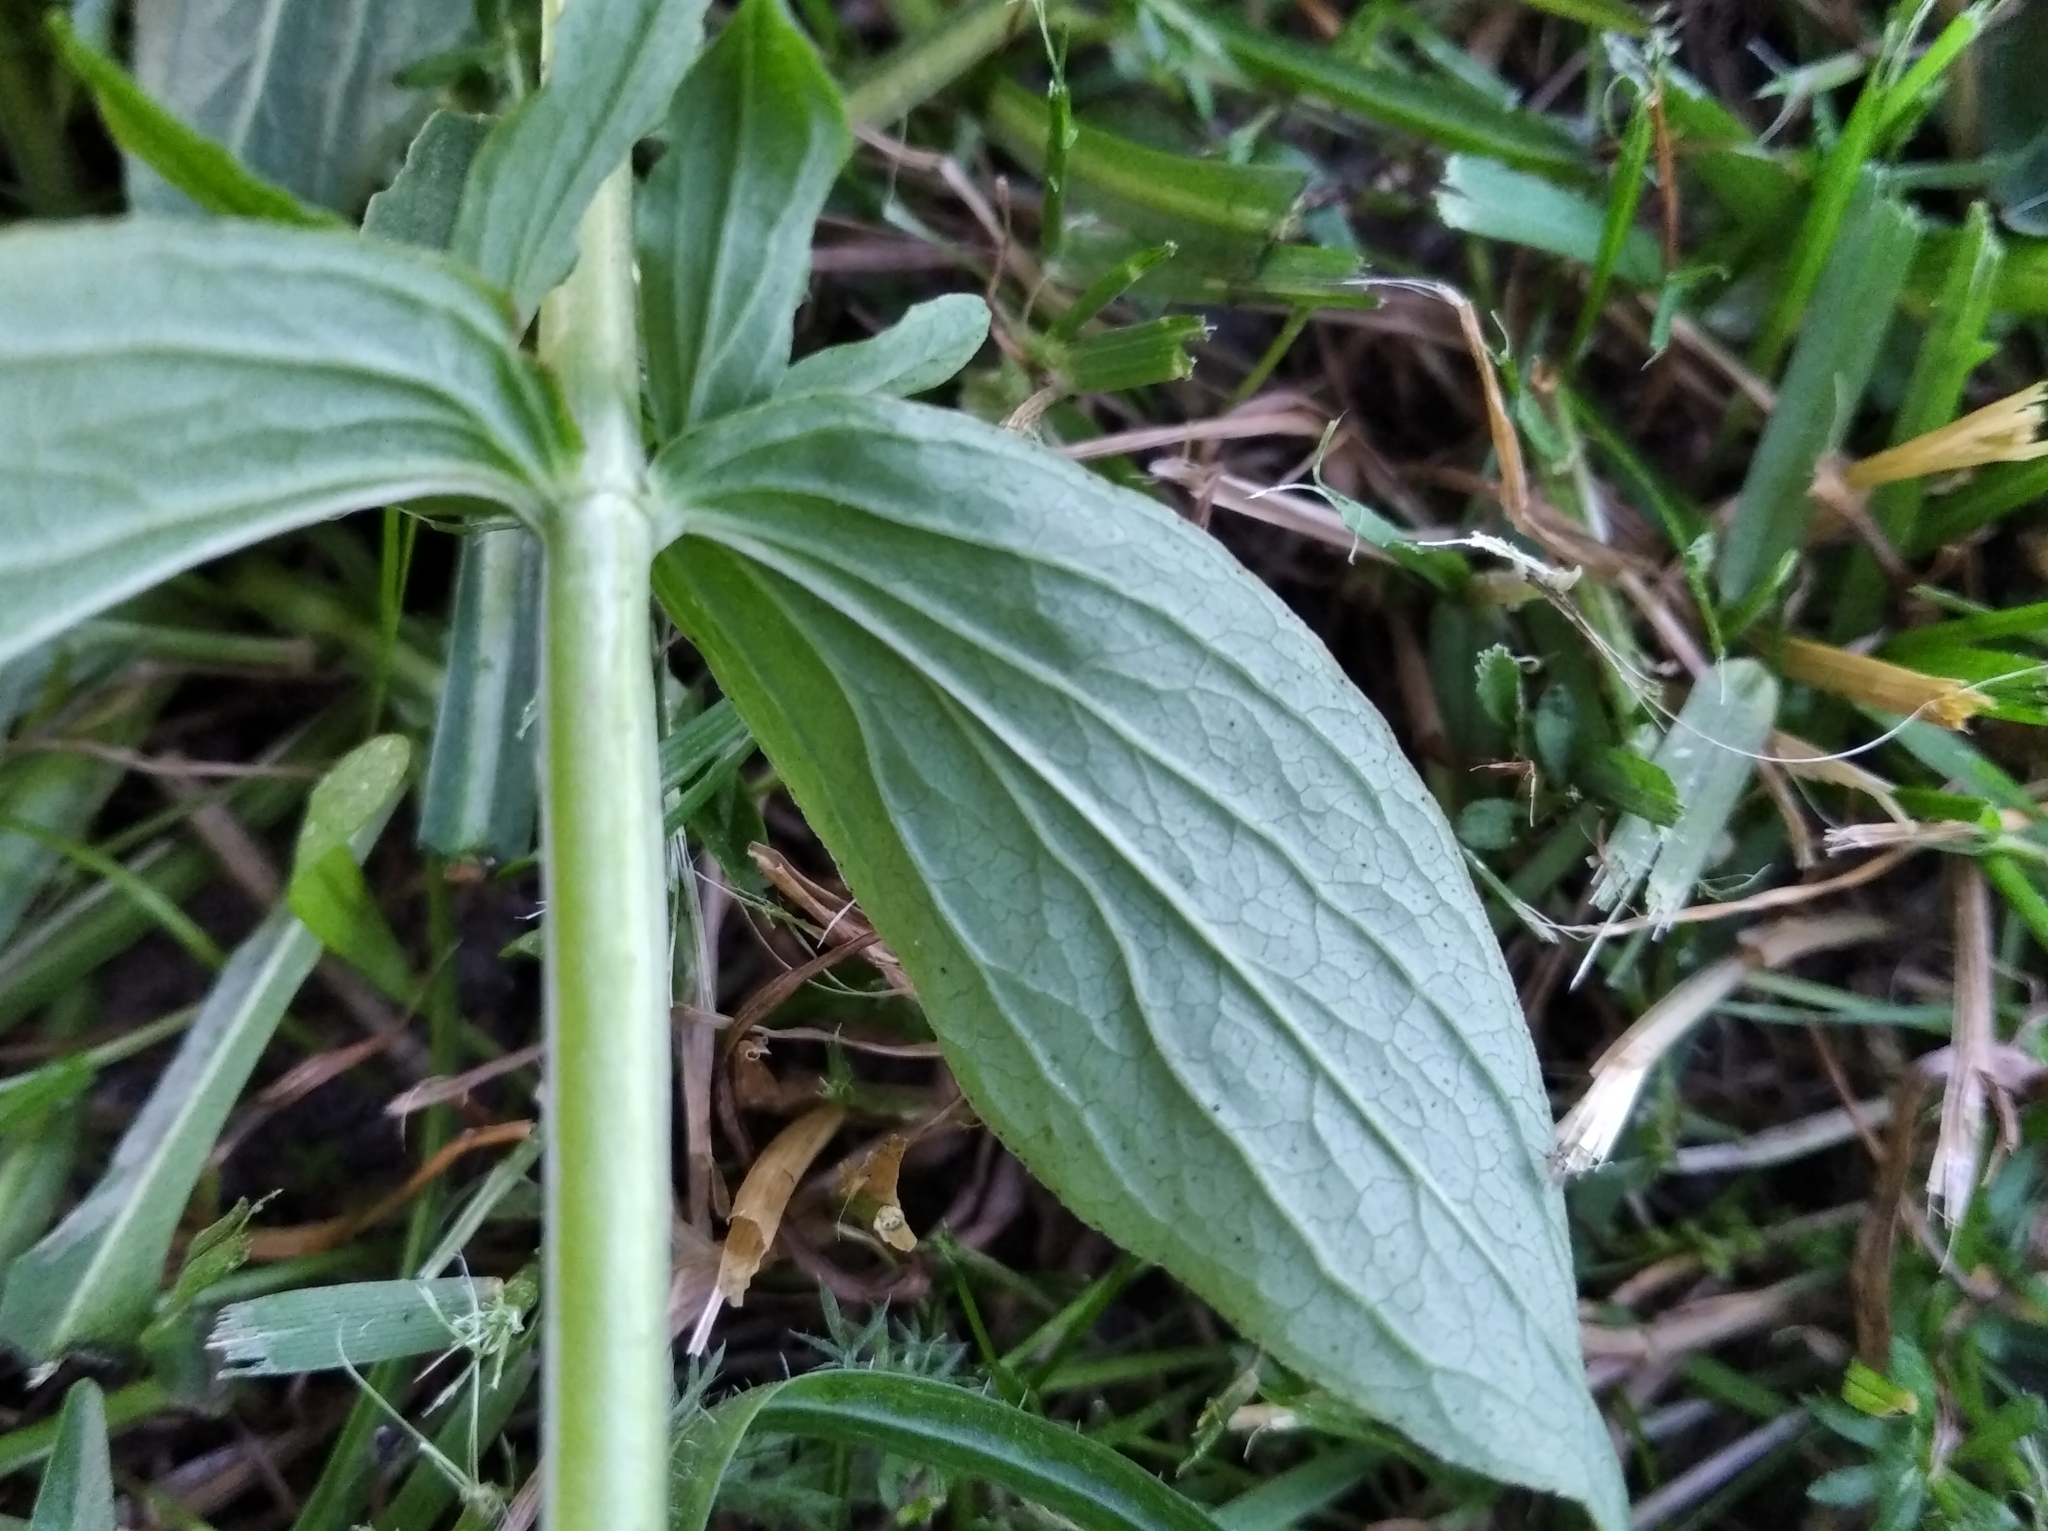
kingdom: Plantae
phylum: Tracheophyta
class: Magnoliopsida
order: Malpighiales
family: Hypericaceae
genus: Hypericum
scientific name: Hypericum maculatum
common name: Imperforate st. john's-wort
